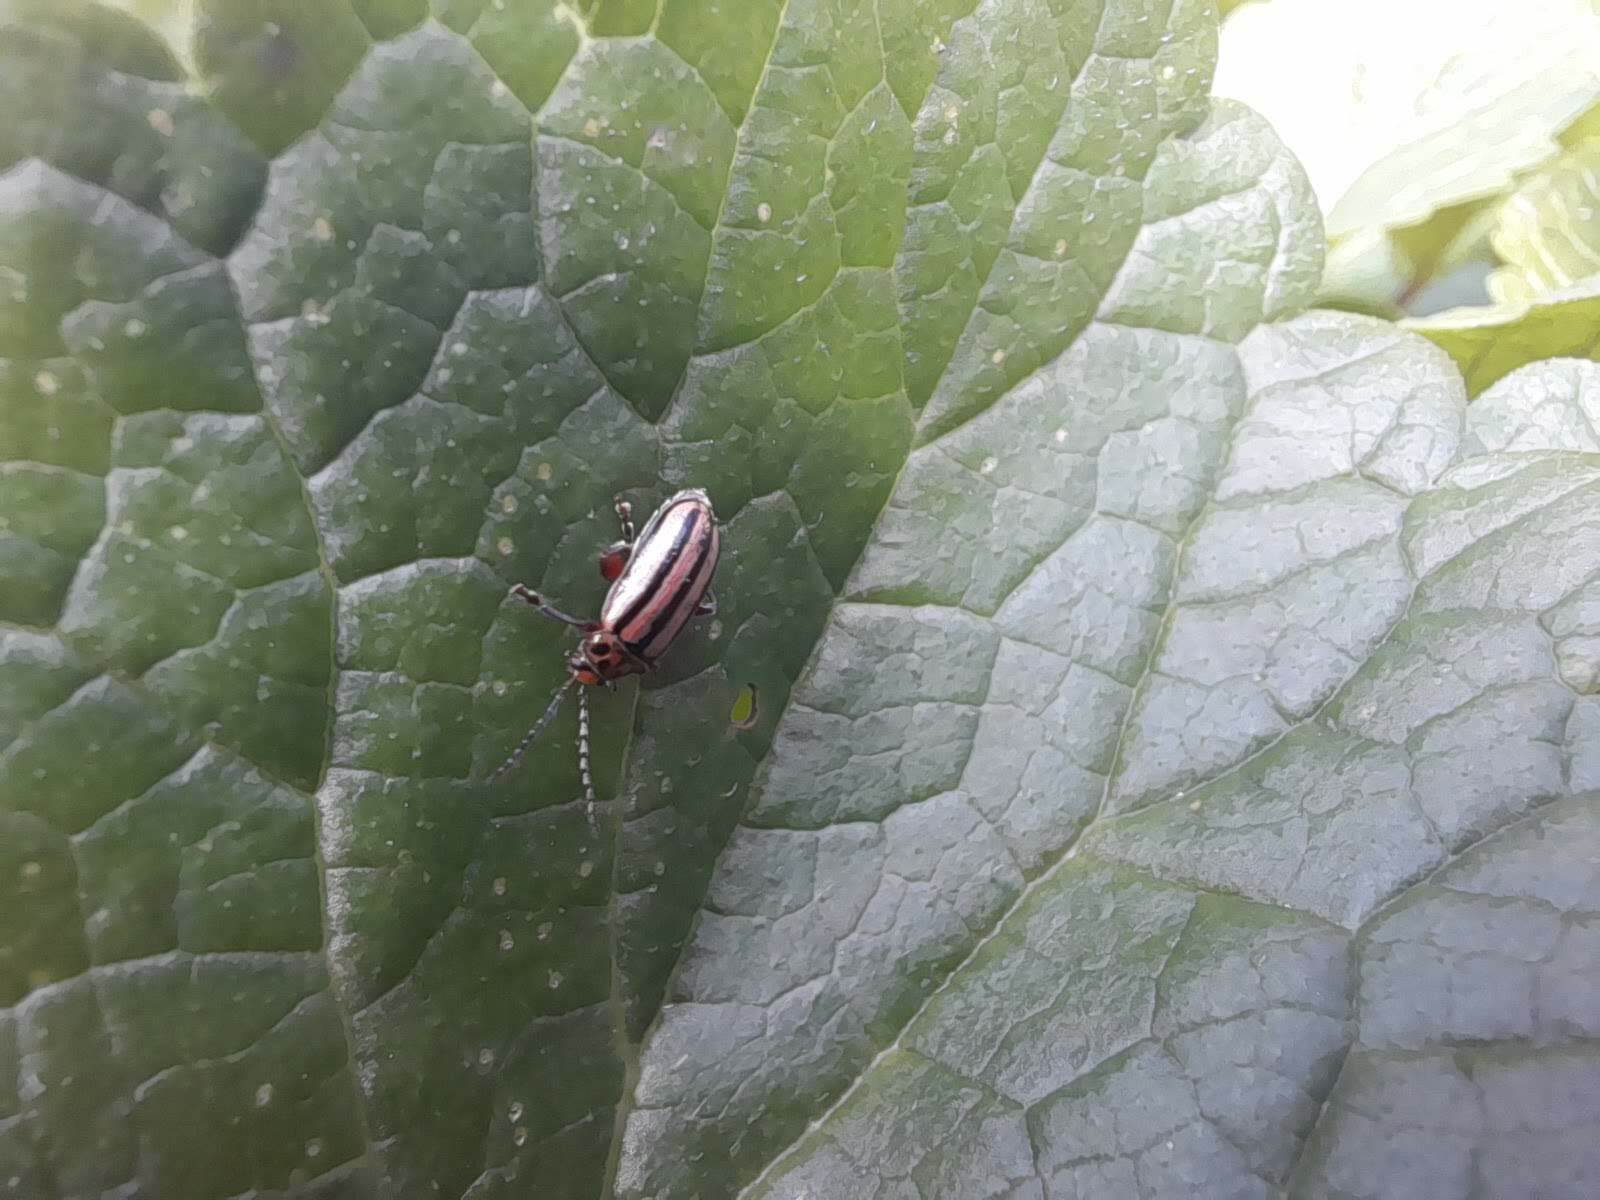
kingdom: Animalia
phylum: Arthropoda
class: Insecta
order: Coleoptera
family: Chrysomelidae
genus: Disonycha
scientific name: Disonycha
